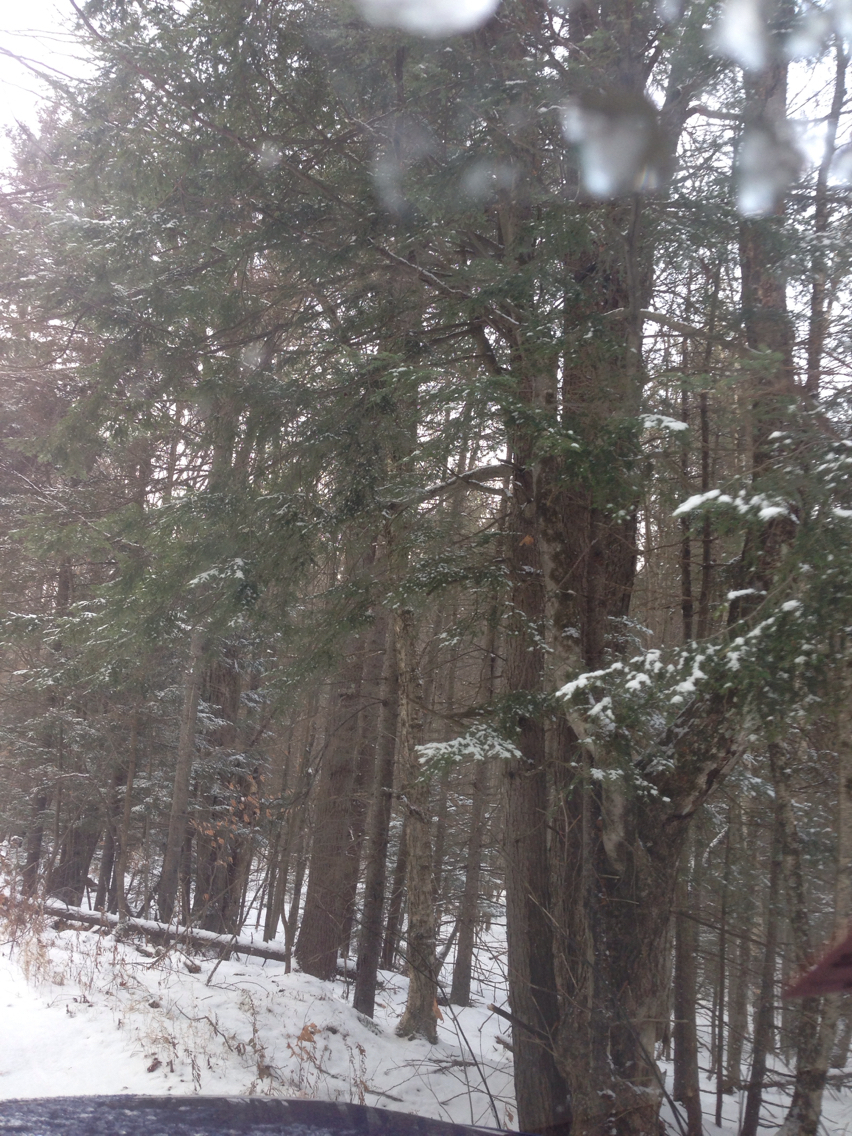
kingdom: Plantae
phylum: Tracheophyta
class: Pinopsida
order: Pinales
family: Pinaceae
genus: Tsuga
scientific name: Tsuga canadensis
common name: Eastern hemlock
